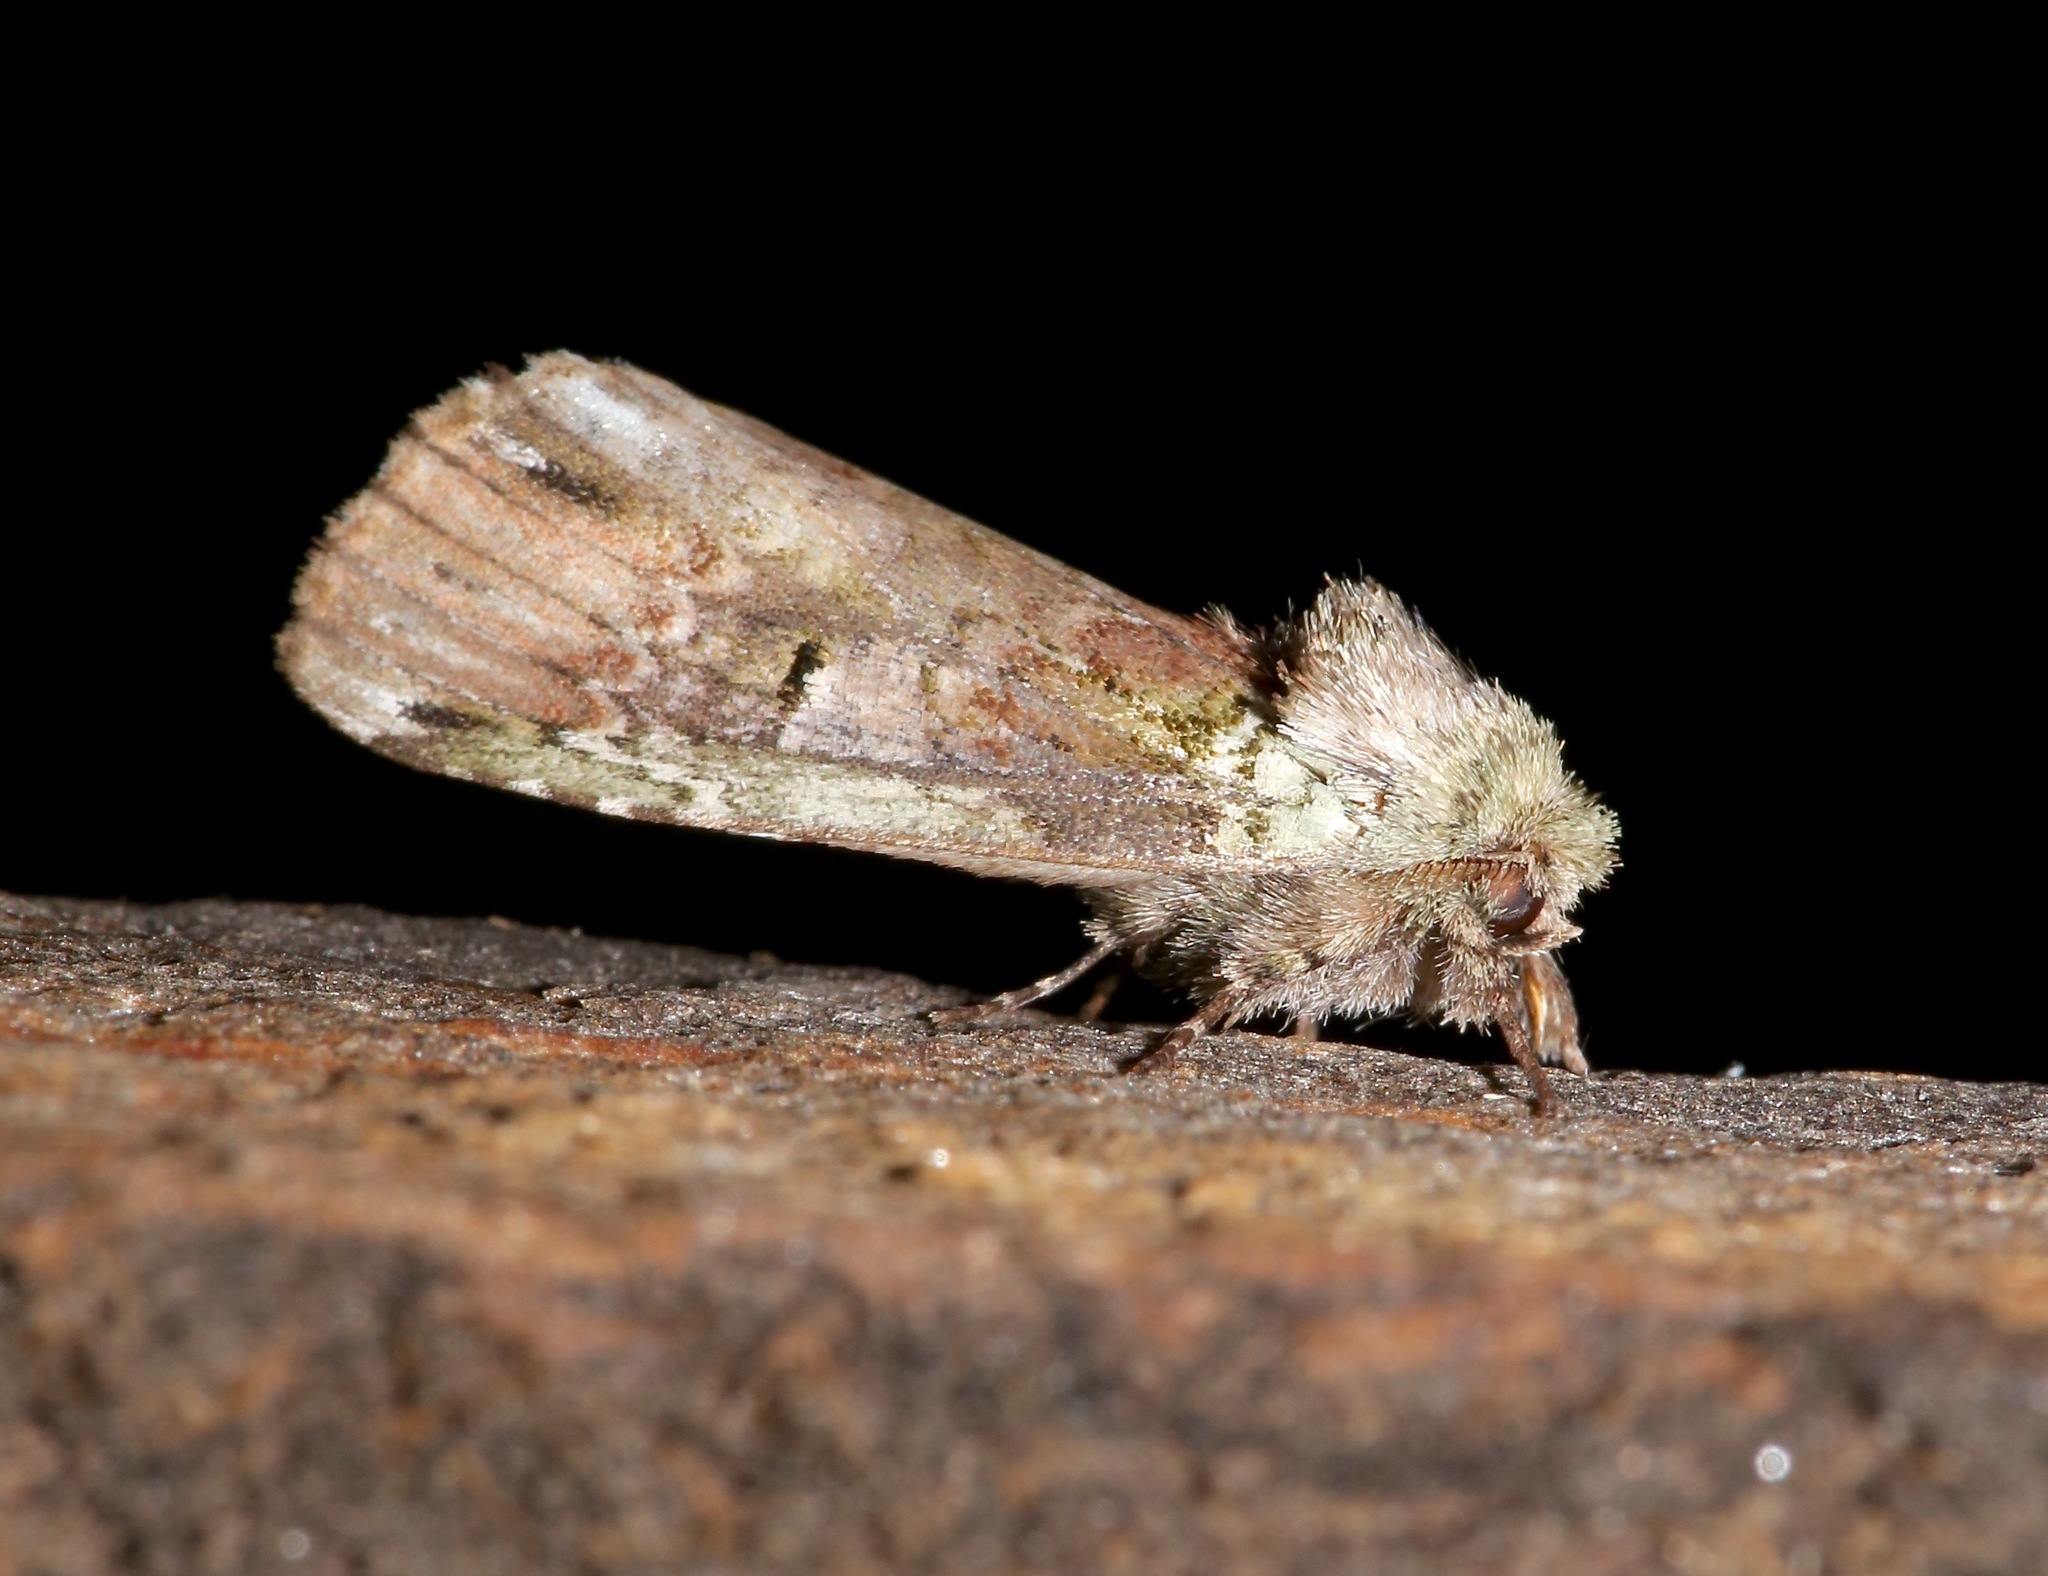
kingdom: Animalia
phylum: Arthropoda
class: Insecta
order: Lepidoptera
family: Notodontidae
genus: Schizura
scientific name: Schizura
